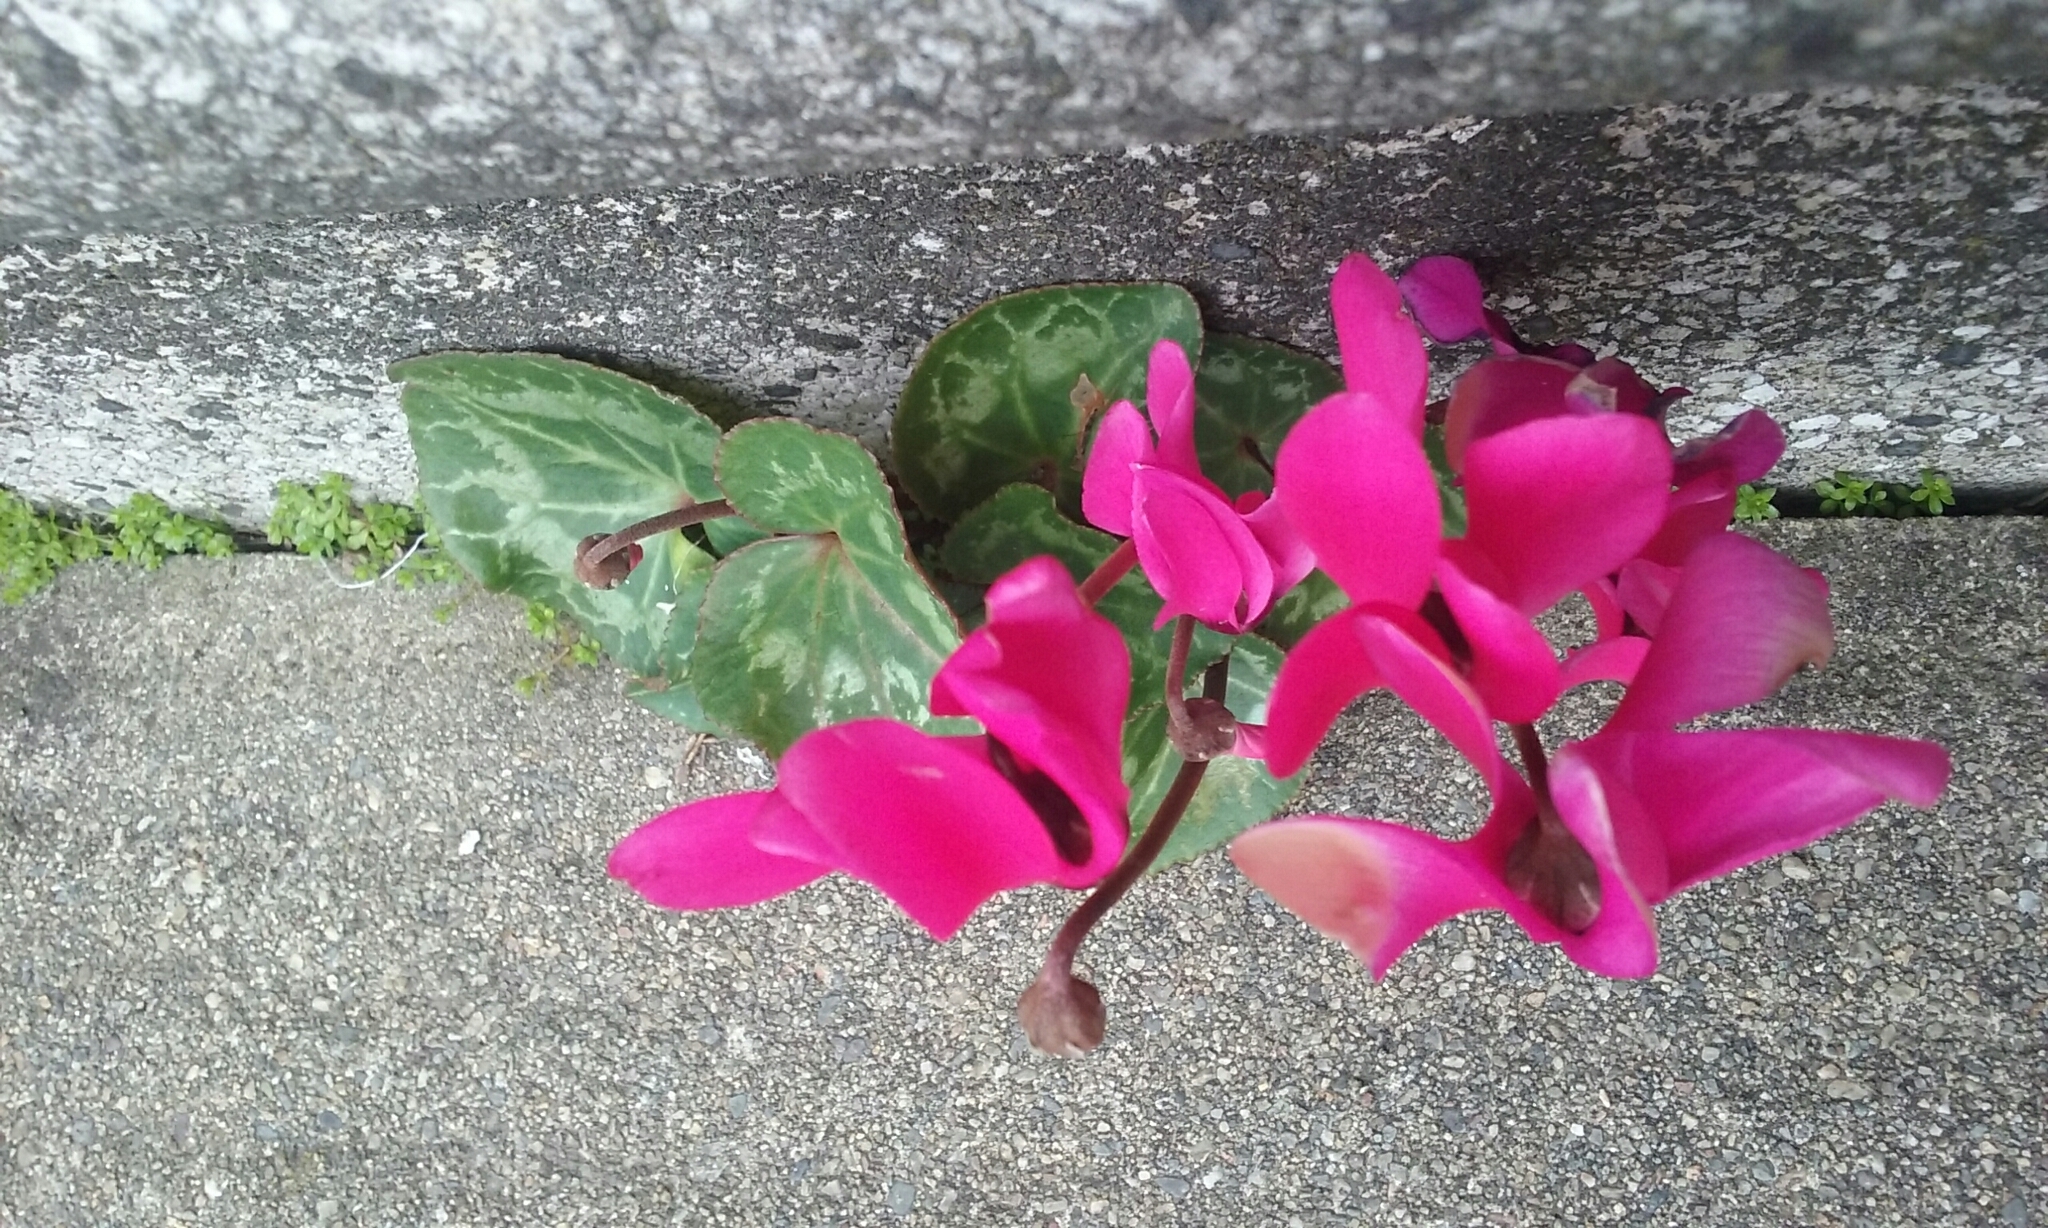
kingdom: Plantae
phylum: Tracheophyta
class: Magnoliopsida
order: Ericales
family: Primulaceae
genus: Cyclamen
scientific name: Cyclamen persicum
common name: Florist's cyclamen
